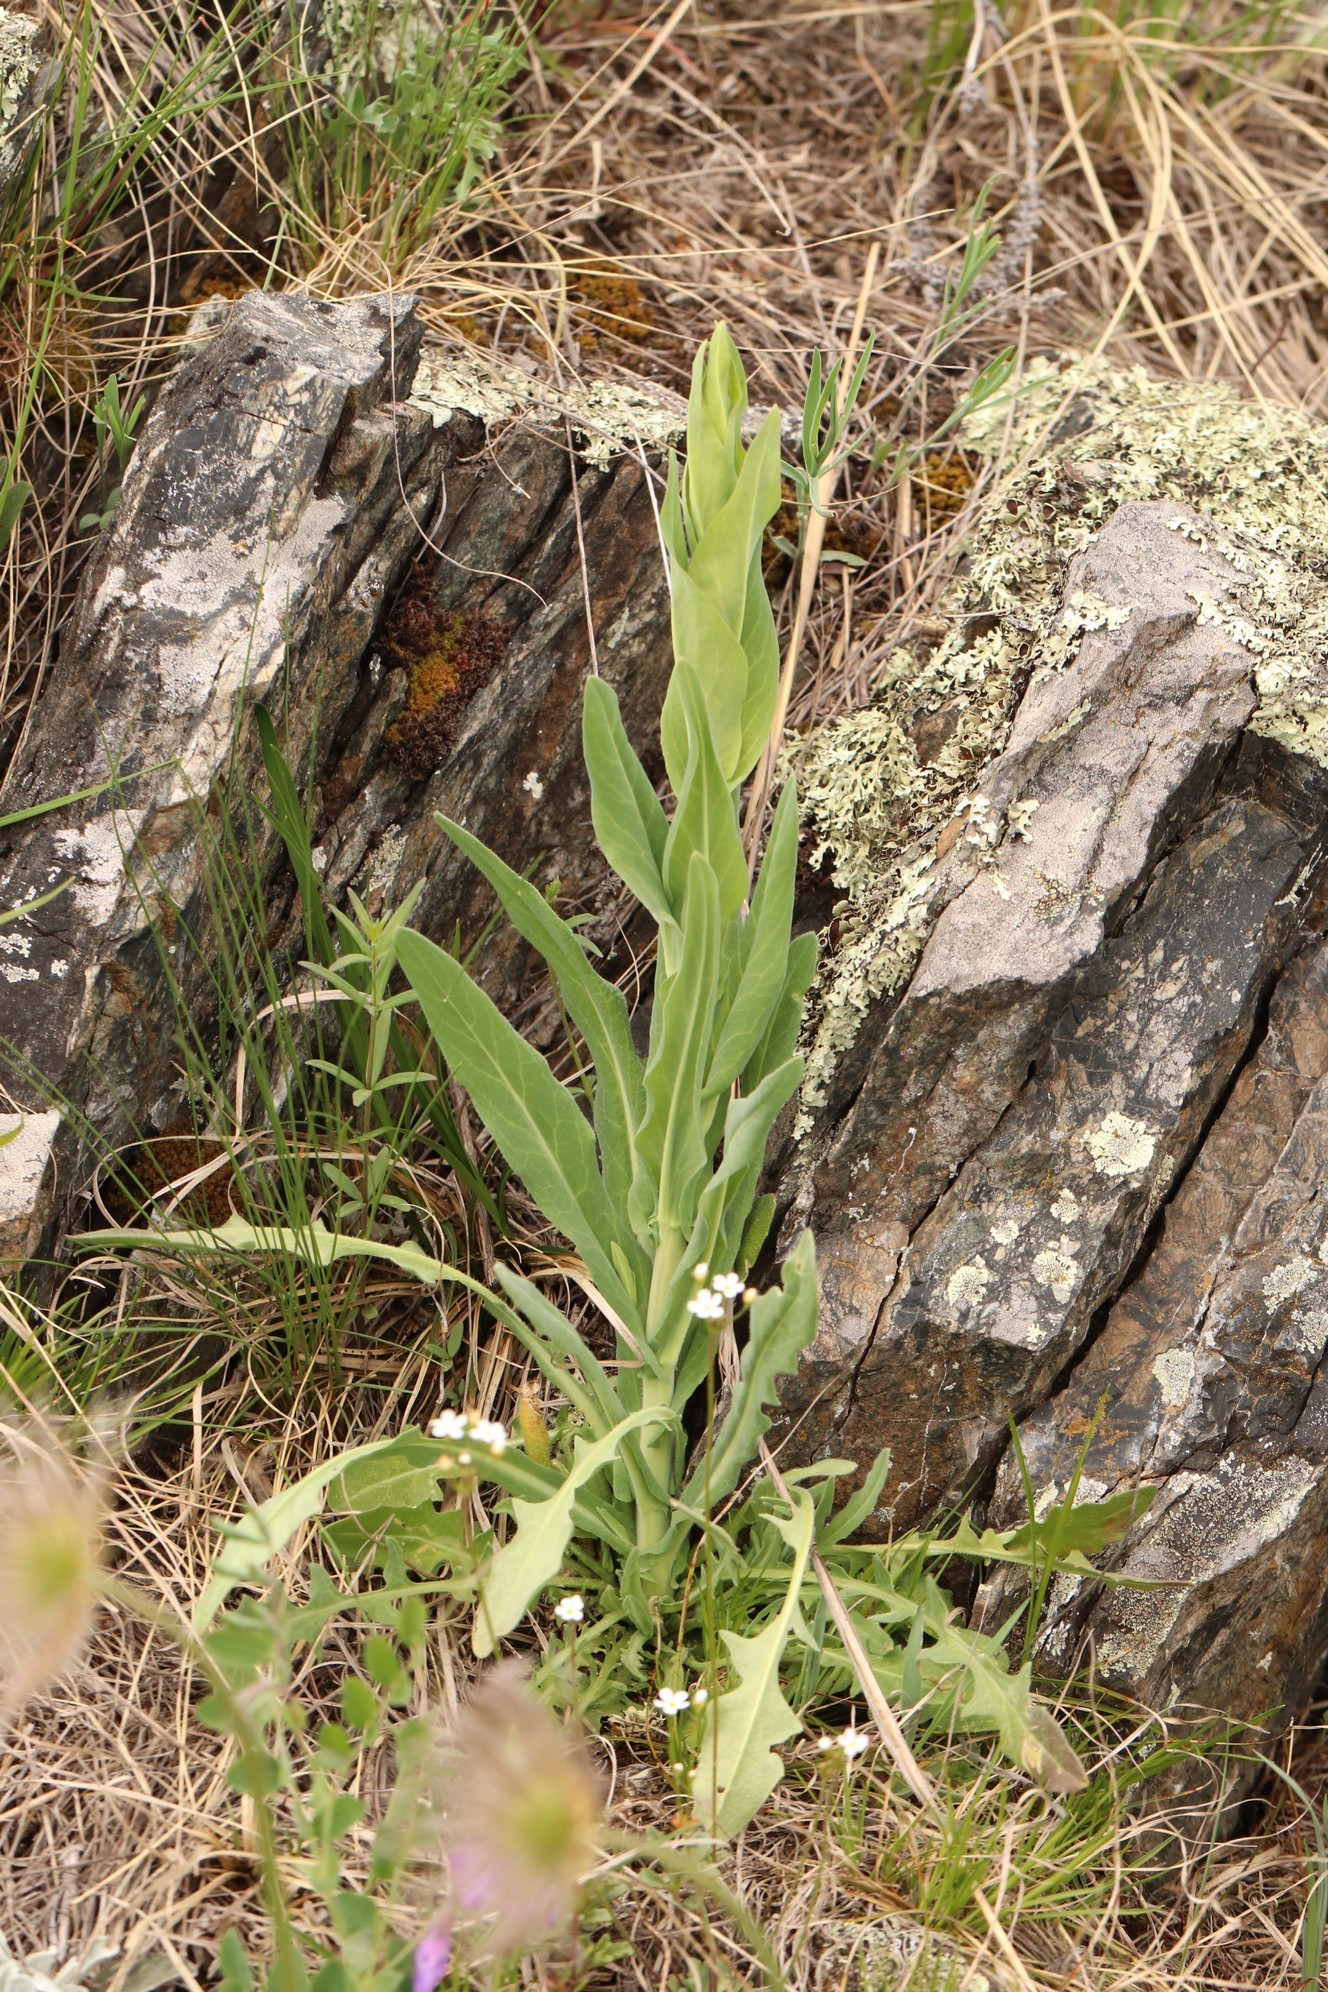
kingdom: Plantae
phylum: Tracheophyta
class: Magnoliopsida
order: Brassicales
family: Brassicaceae
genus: Turritis
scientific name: Turritis glabra
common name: Tower rockcress
